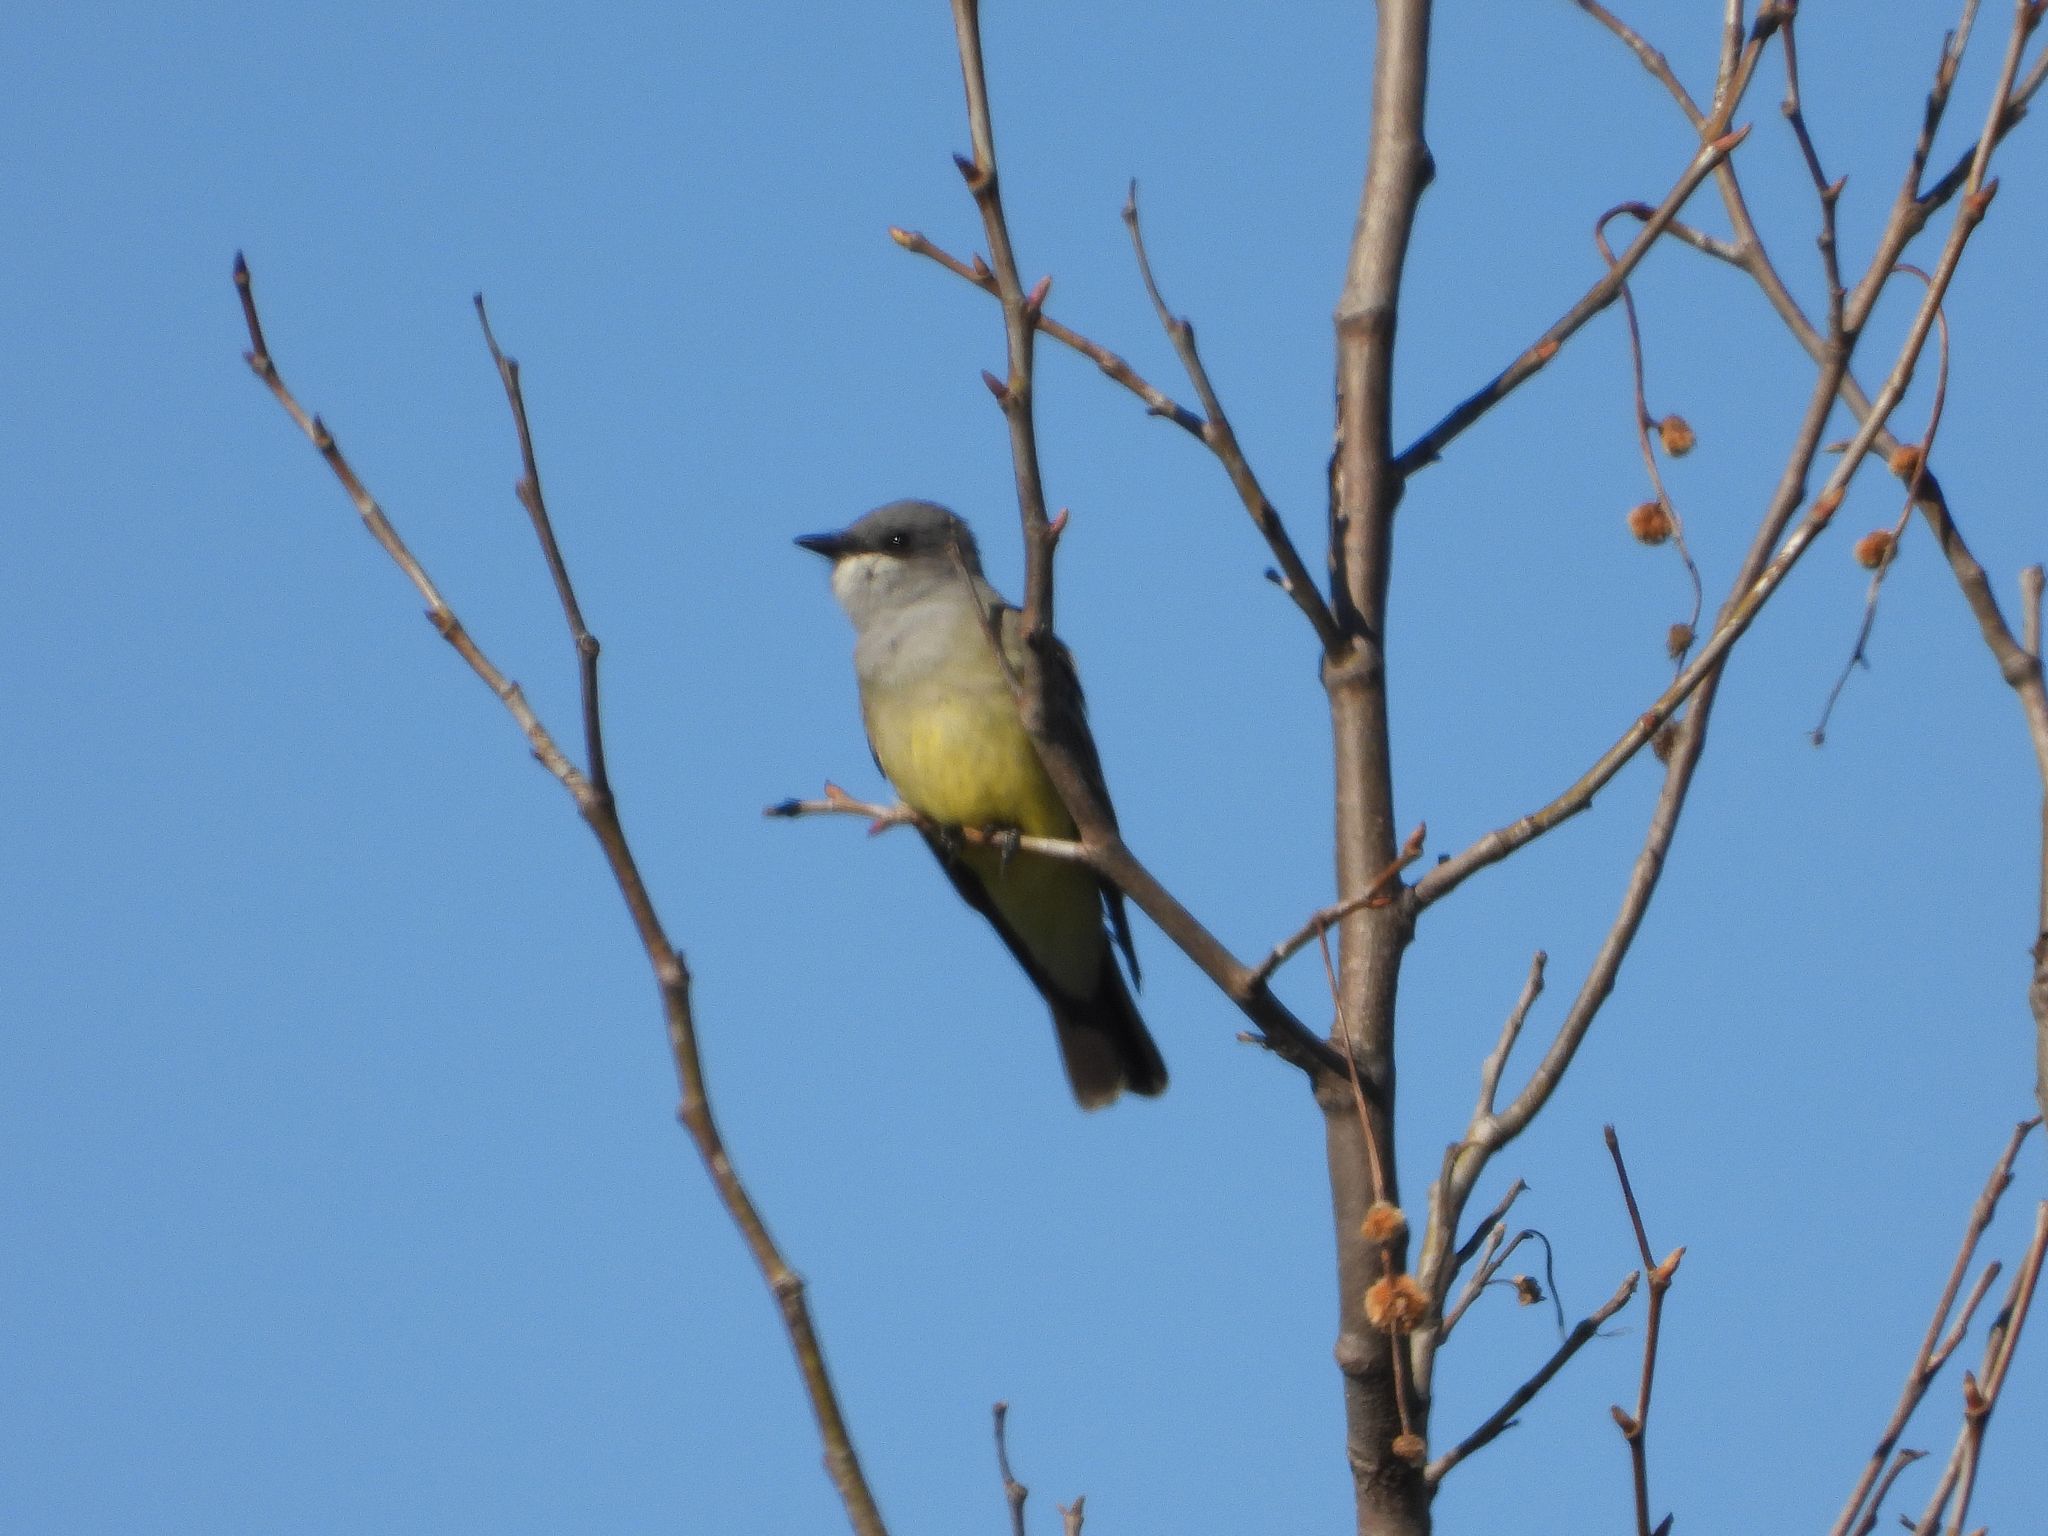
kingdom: Animalia
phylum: Chordata
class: Aves
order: Passeriformes
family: Tyrannidae
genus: Tyrannus
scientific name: Tyrannus vociferans
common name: Cassin's kingbird
